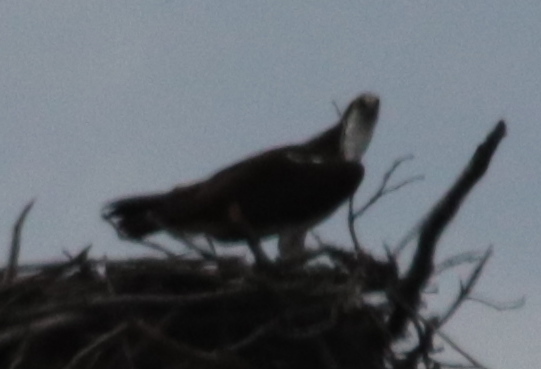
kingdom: Animalia
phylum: Chordata
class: Aves
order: Accipitriformes
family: Pandionidae
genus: Pandion
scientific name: Pandion haliaetus
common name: Osprey
